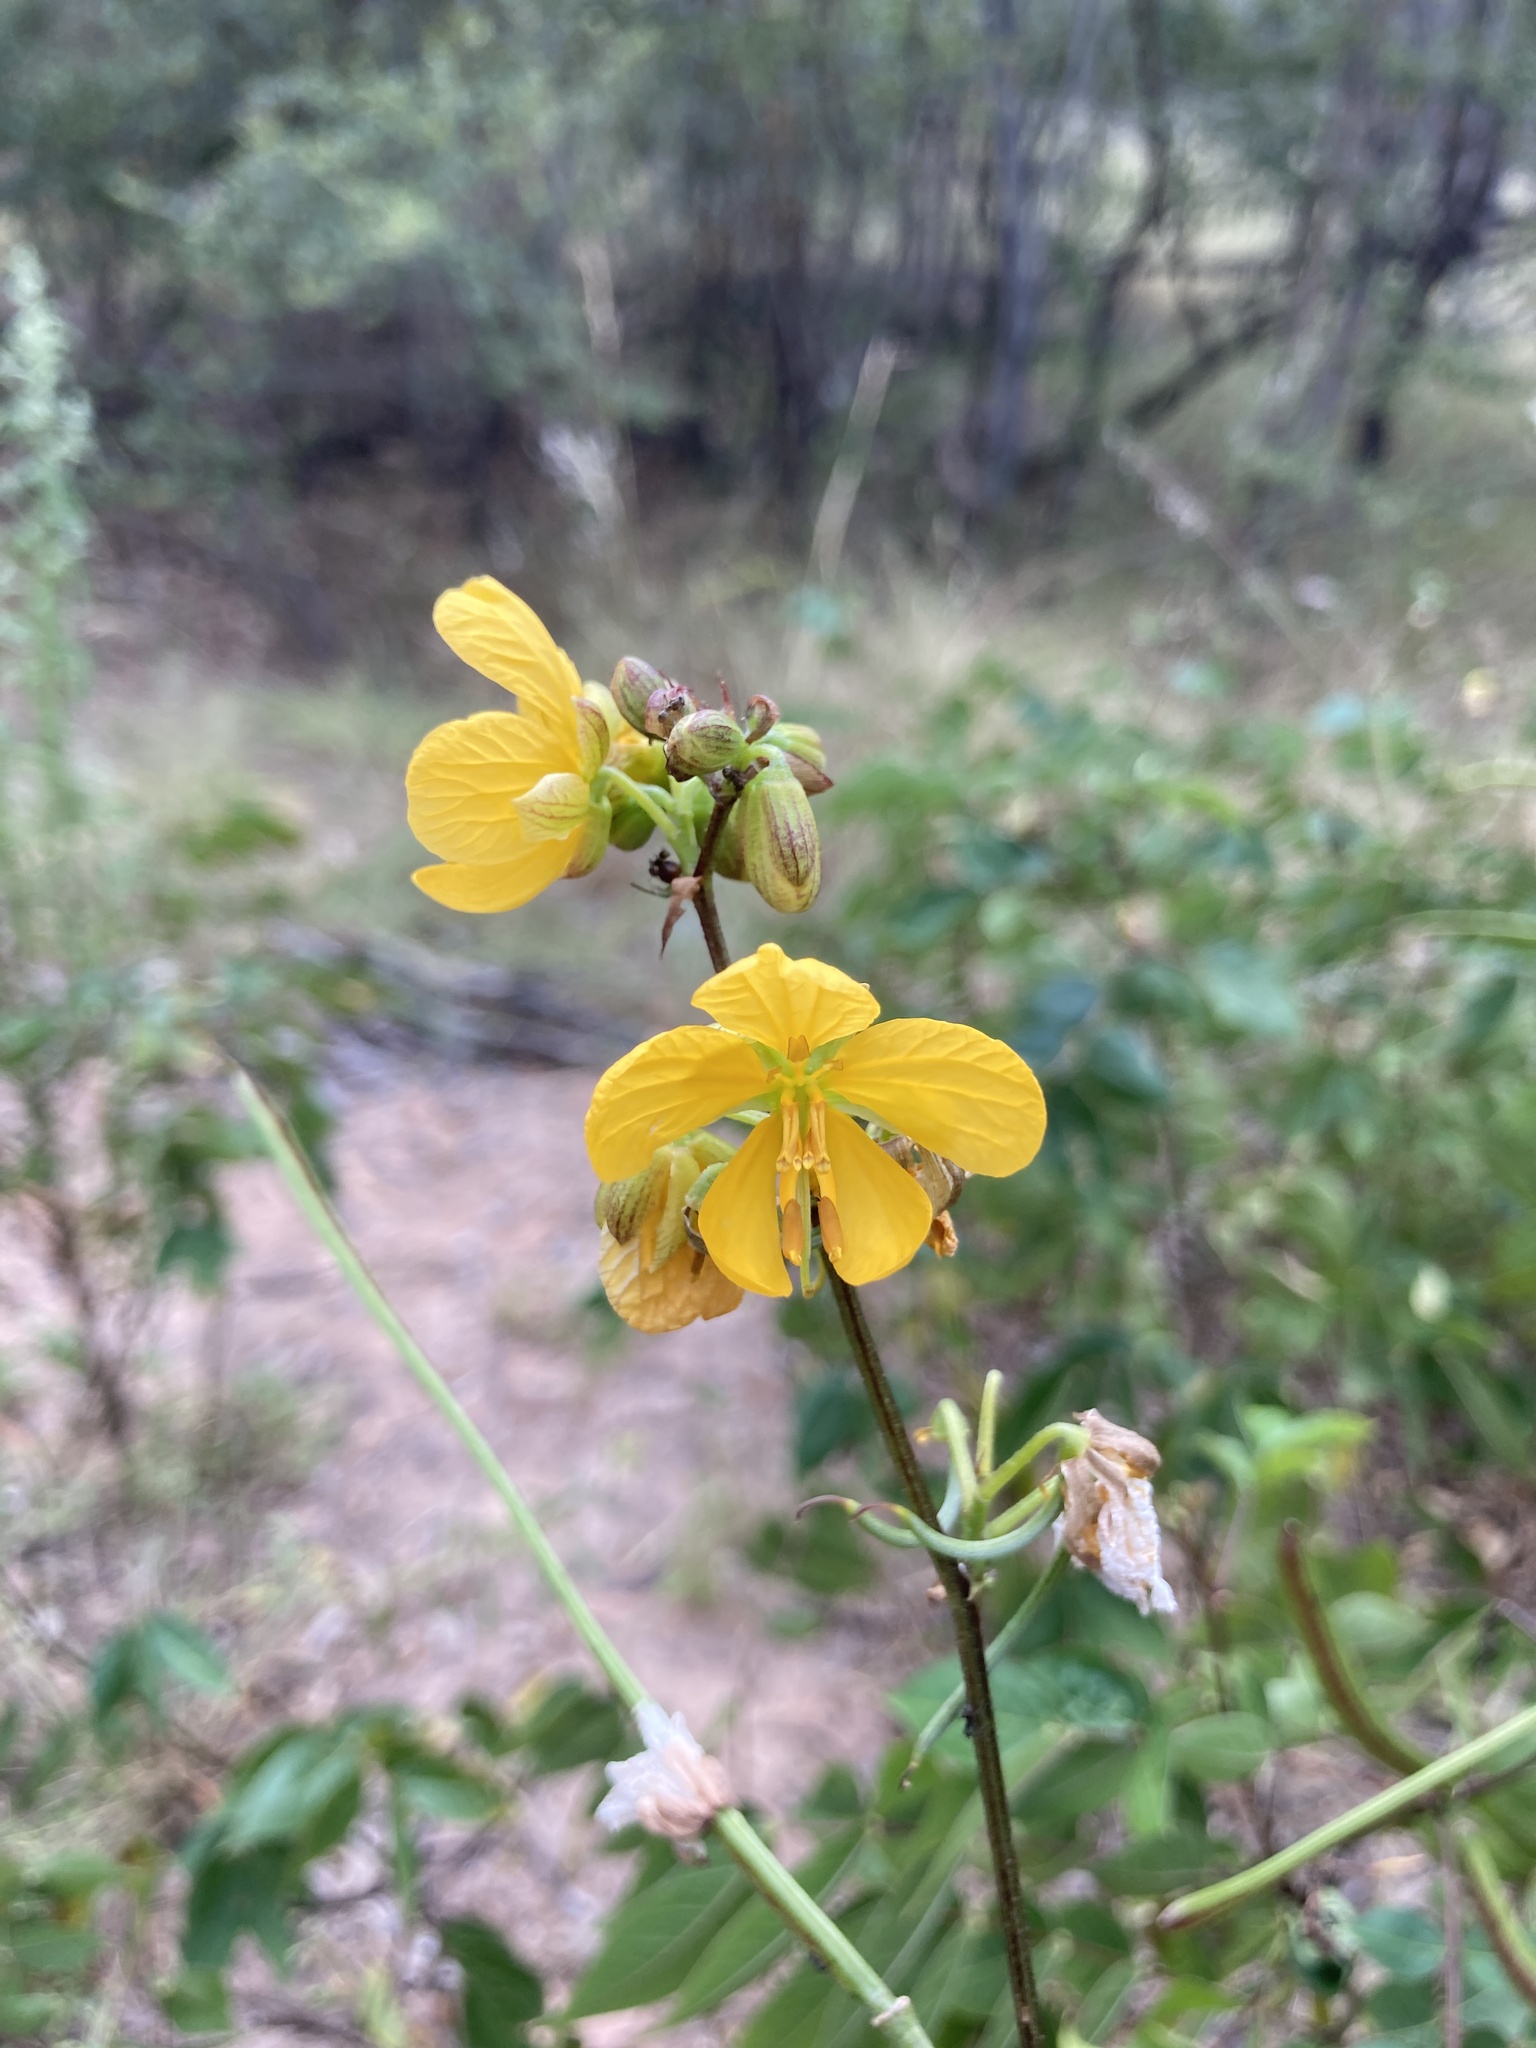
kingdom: Plantae
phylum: Tracheophyta
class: Magnoliopsida
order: Fabales
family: Fabaceae
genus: Senna
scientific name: Senna occidentalis
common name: Septicweed
